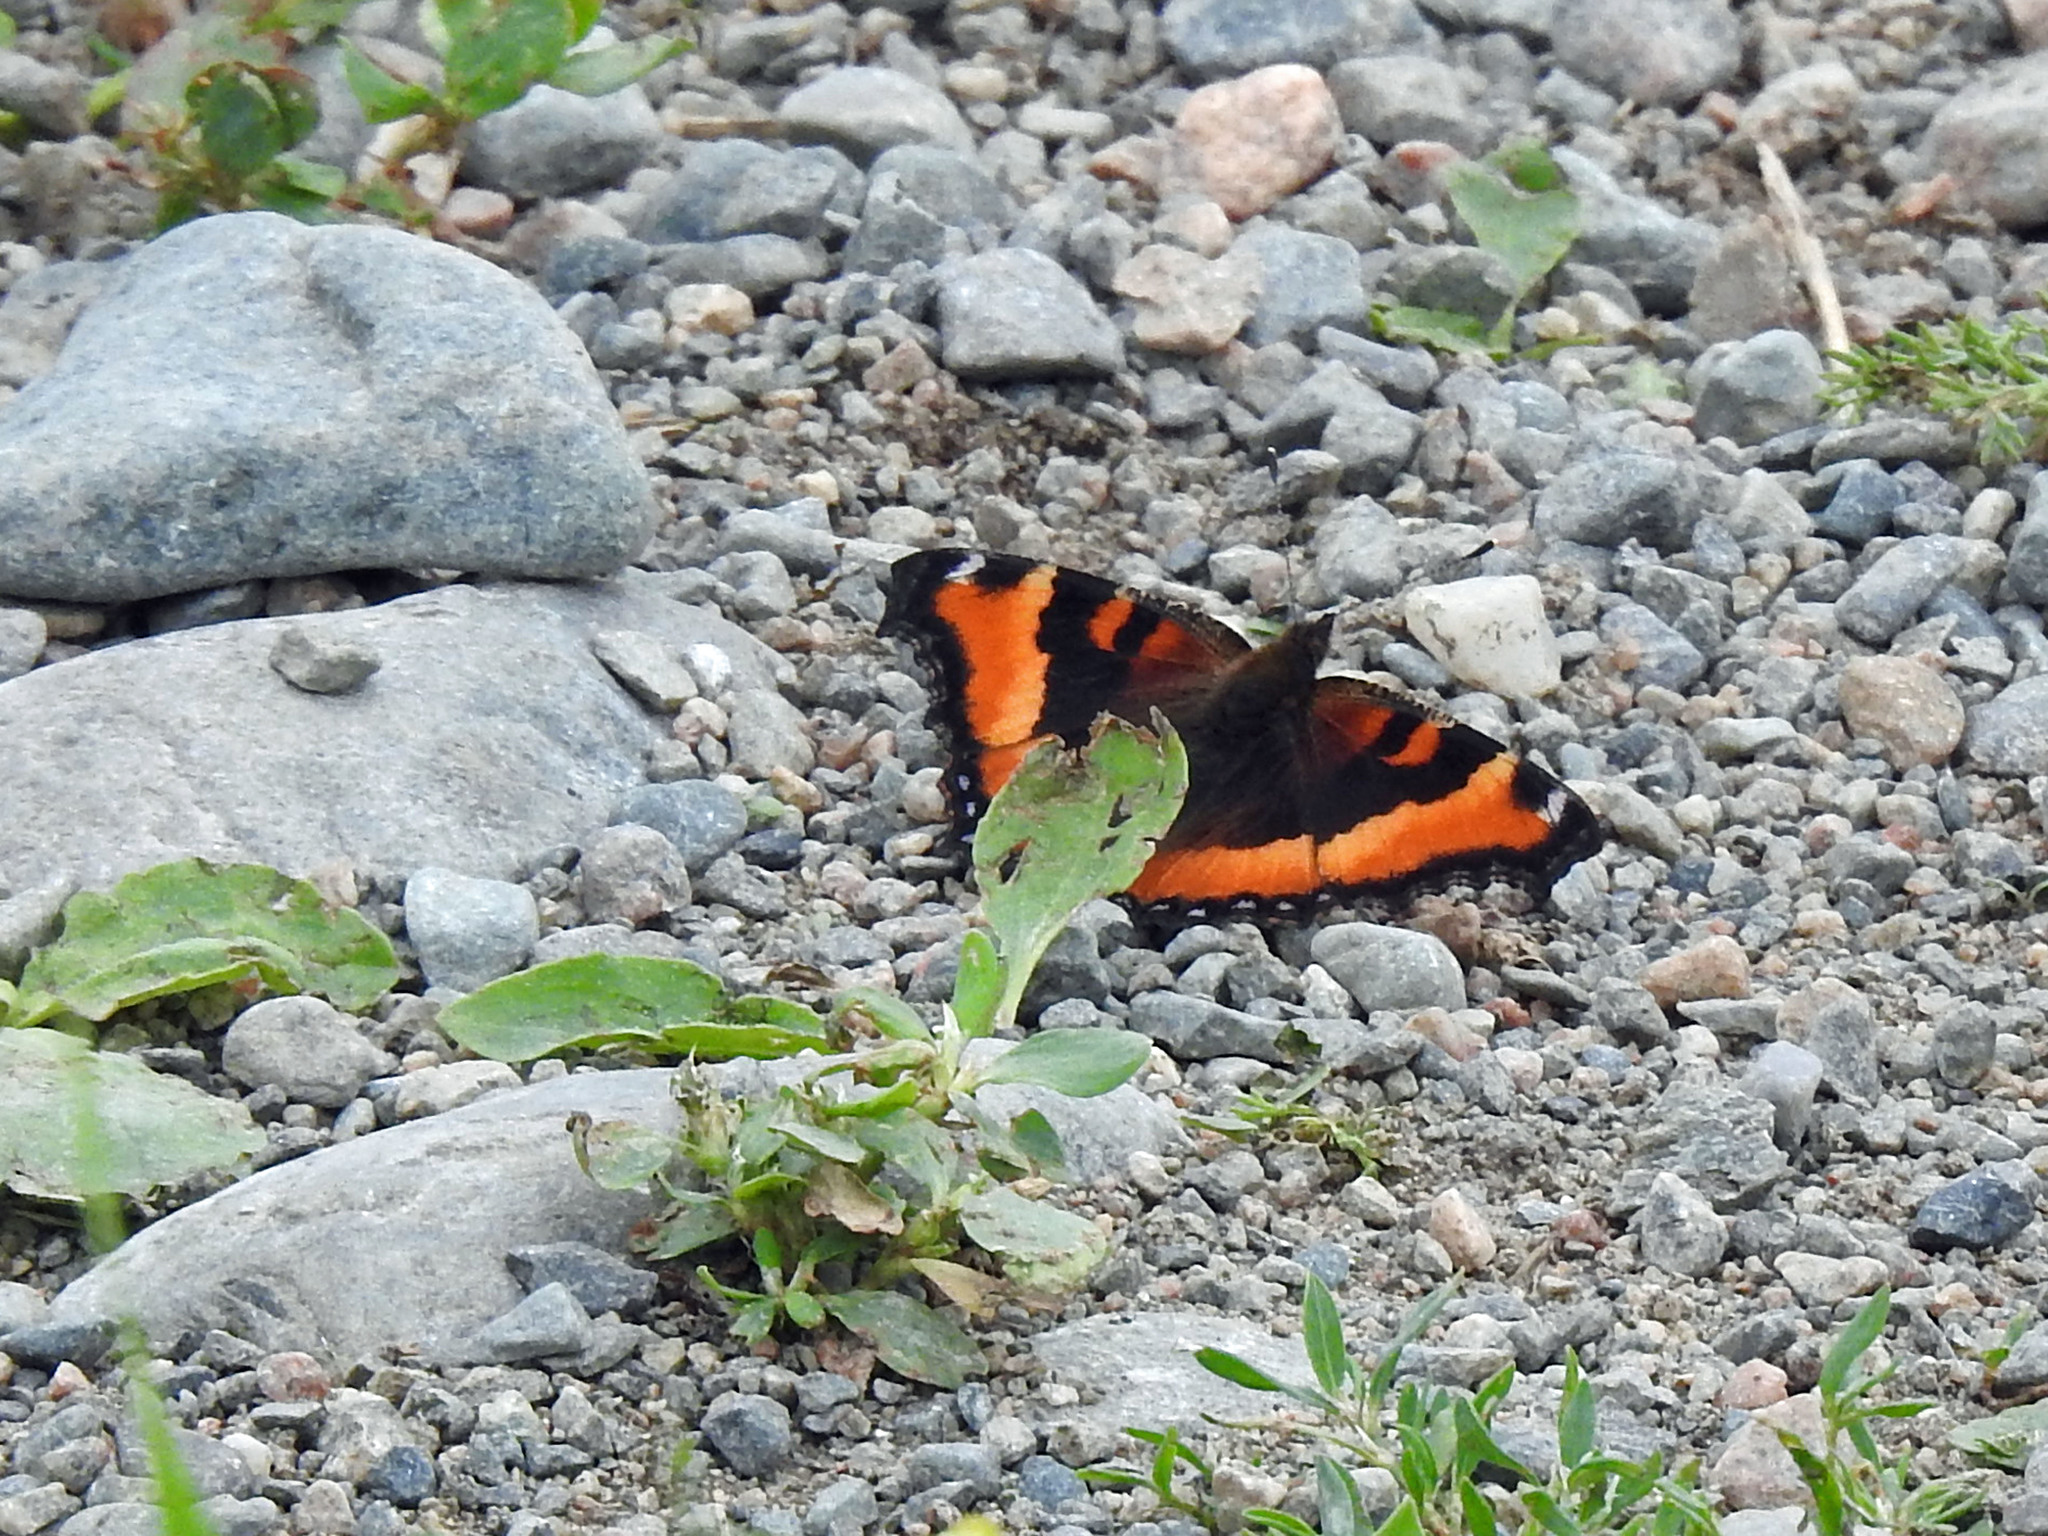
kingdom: Animalia
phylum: Arthropoda
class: Insecta
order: Lepidoptera
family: Nymphalidae
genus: Aglais
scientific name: Aglais milberti
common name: Milbert's tortoiseshell
